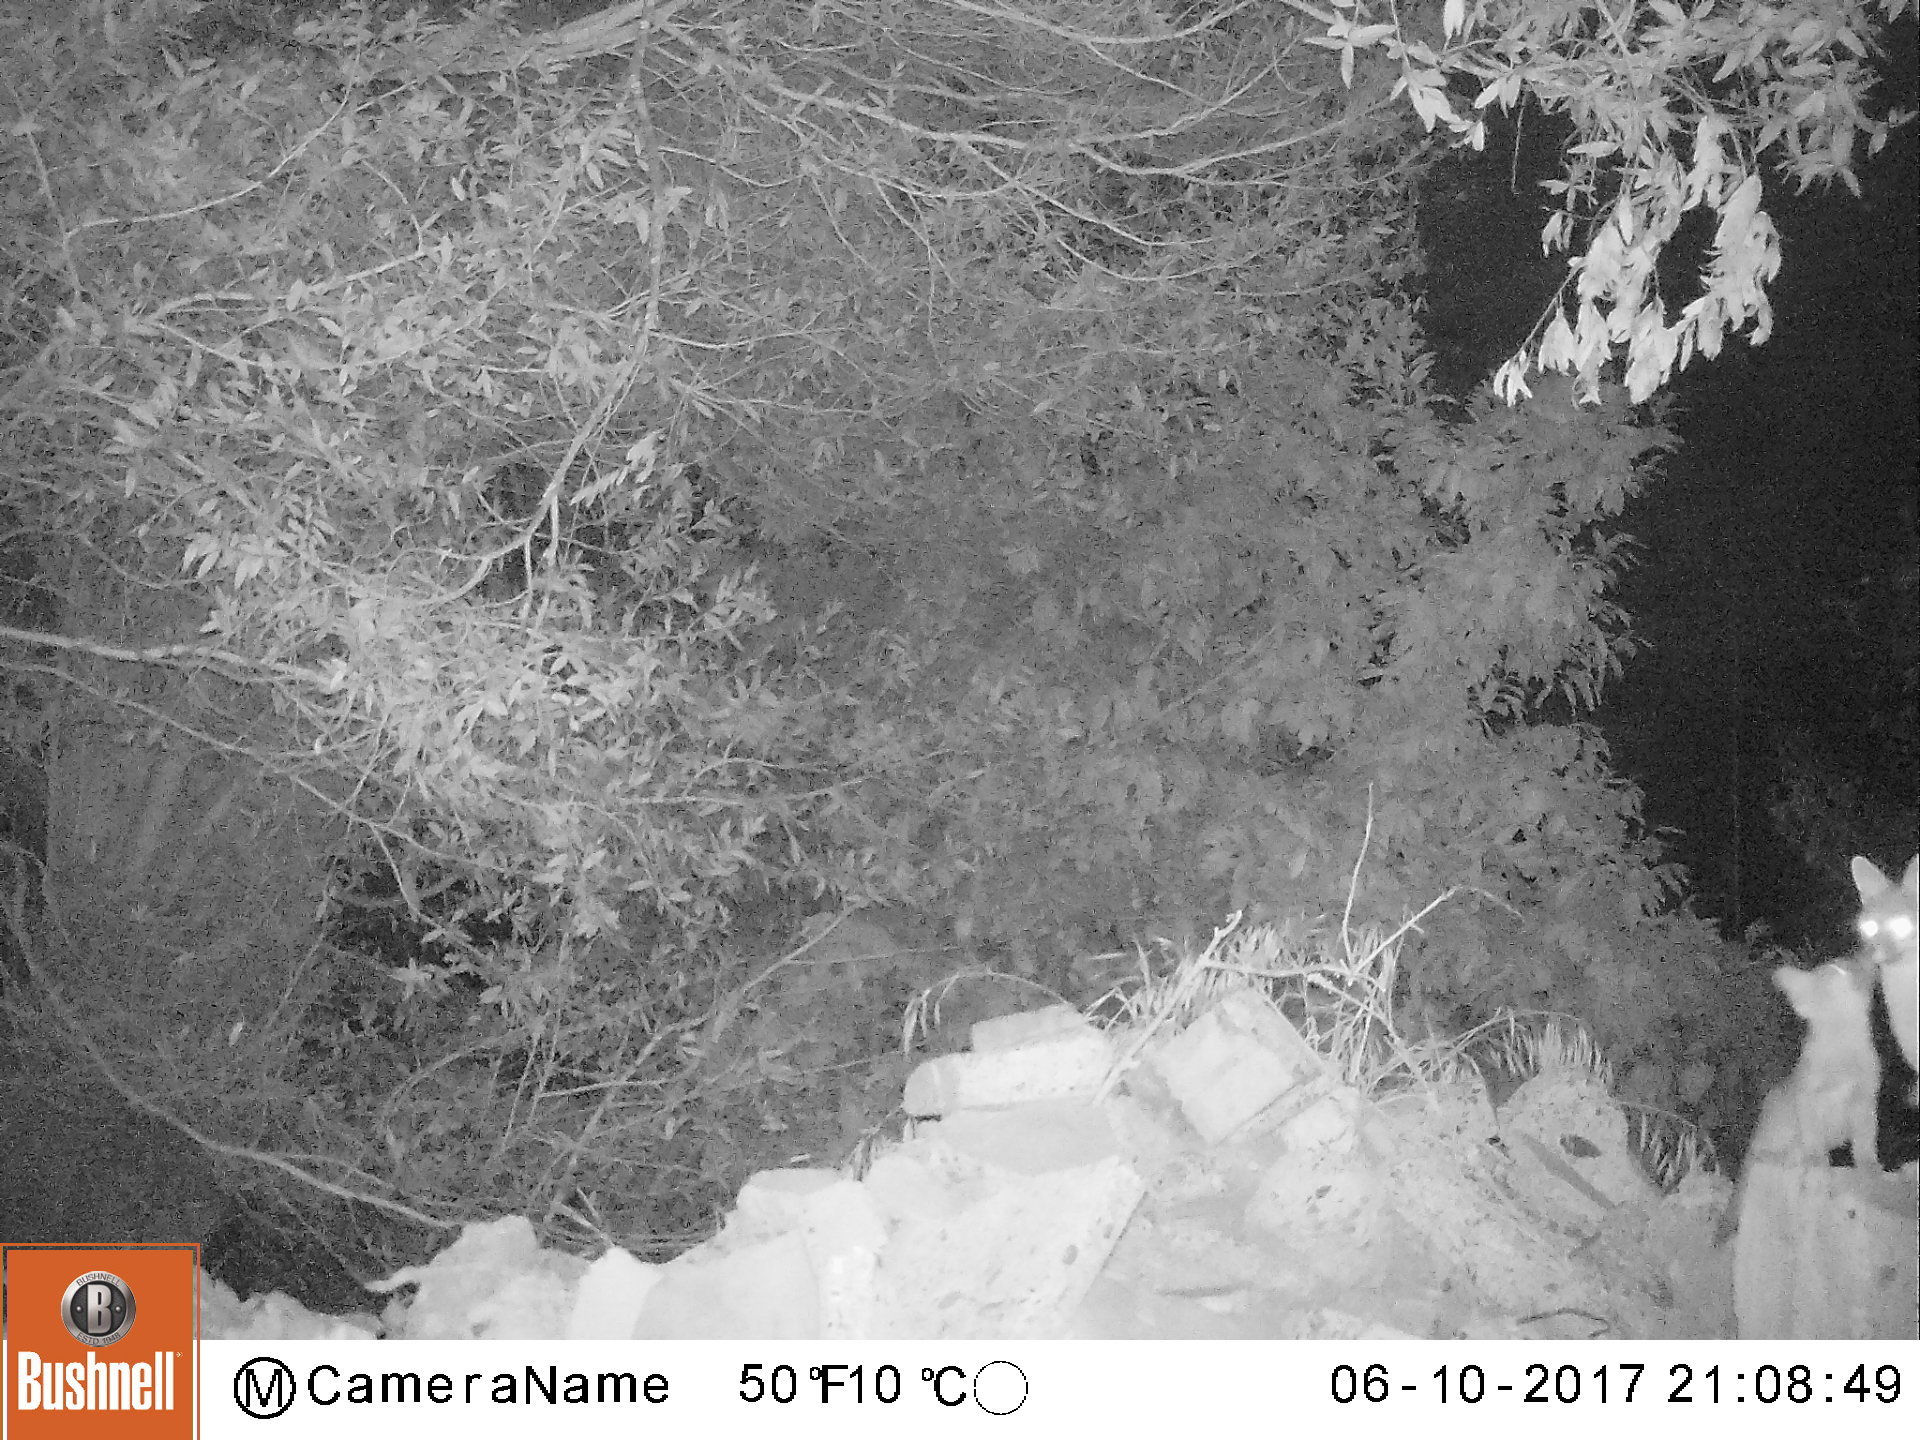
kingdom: Animalia
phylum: Chordata
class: Mammalia
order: Carnivora
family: Canidae
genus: Urocyon
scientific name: Urocyon cinereoargenteus
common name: Gray fox
